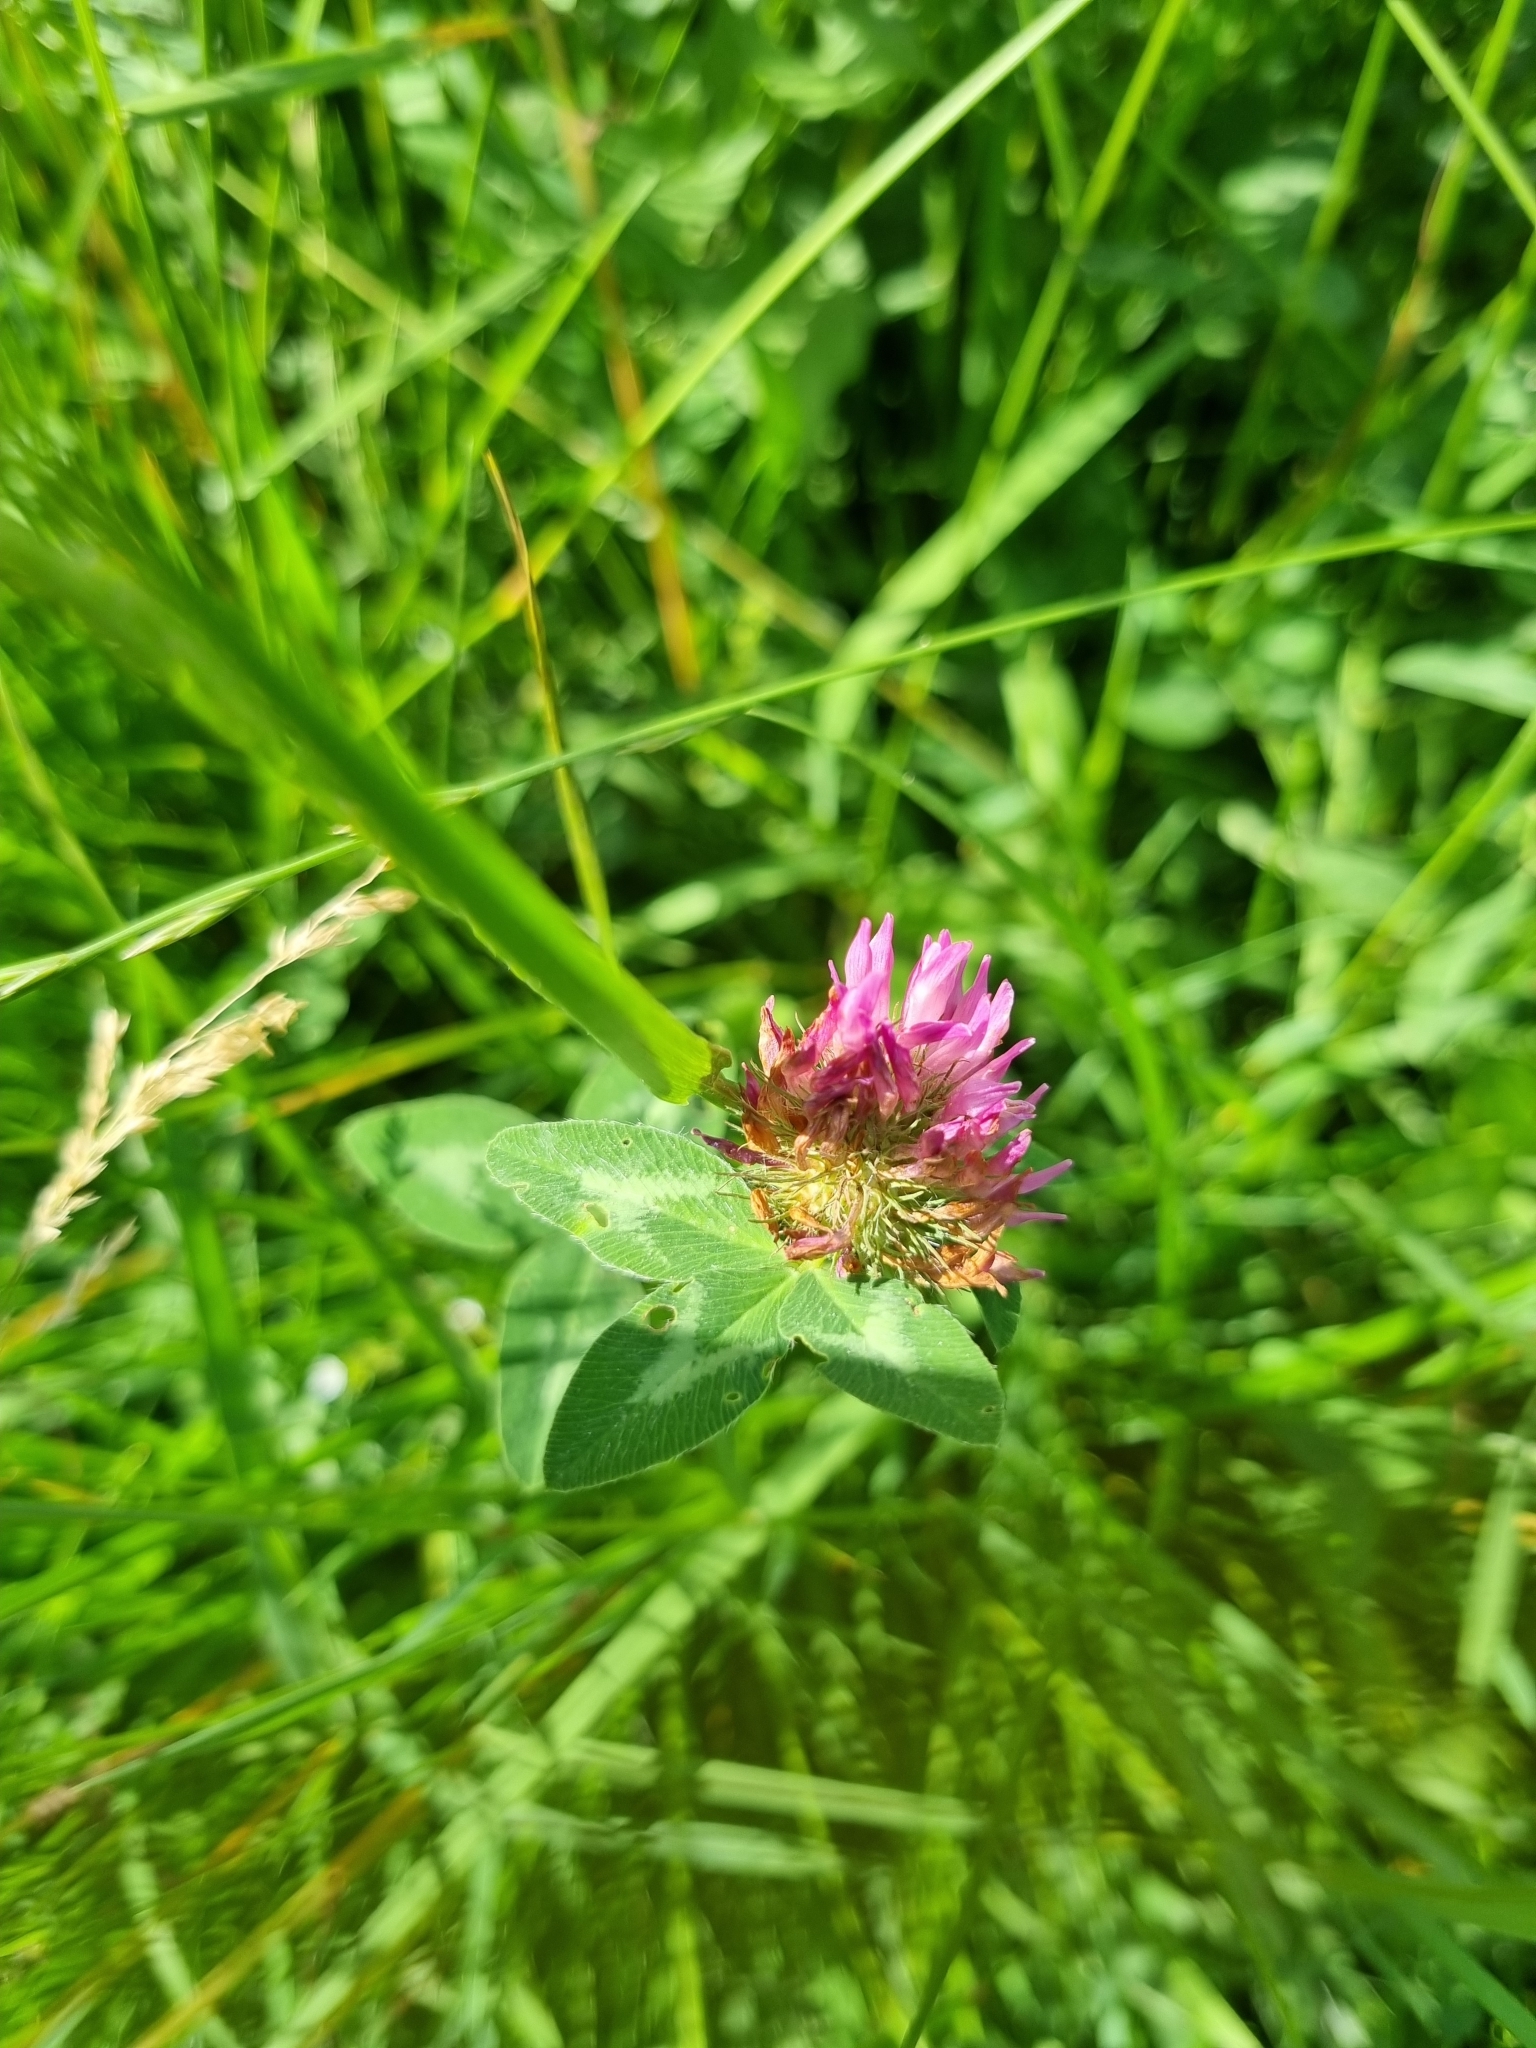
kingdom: Plantae
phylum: Tracheophyta
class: Magnoliopsida
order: Fabales
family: Fabaceae
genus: Trifolium
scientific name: Trifolium pratense
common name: Red clover
